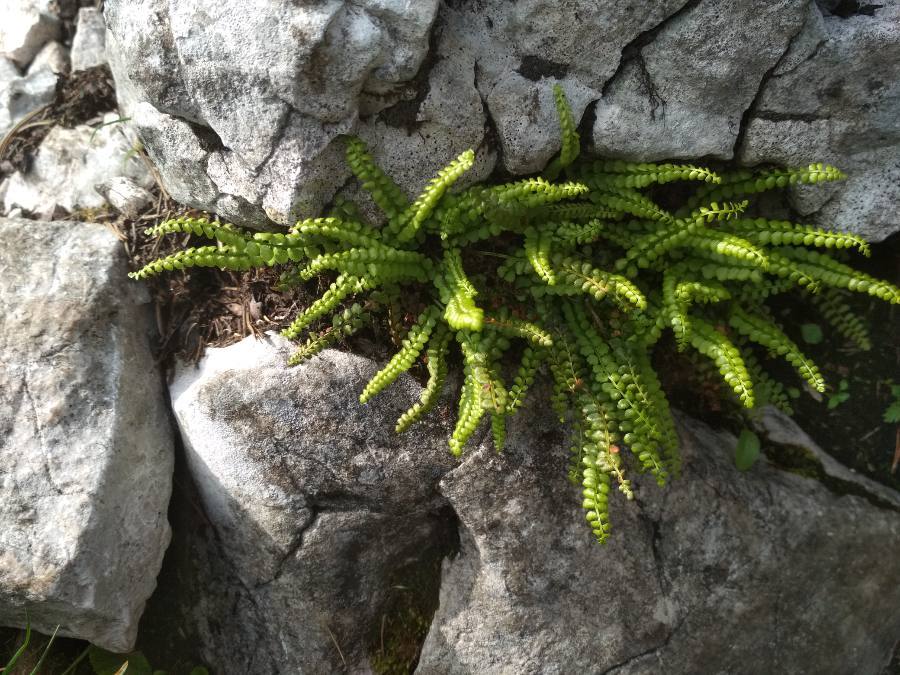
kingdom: Plantae
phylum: Tracheophyta
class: Polypodiopsida
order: Polypodiales
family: Aspleniaceae
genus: Asplenium
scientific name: Asplenium viride
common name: Green spleenwort
